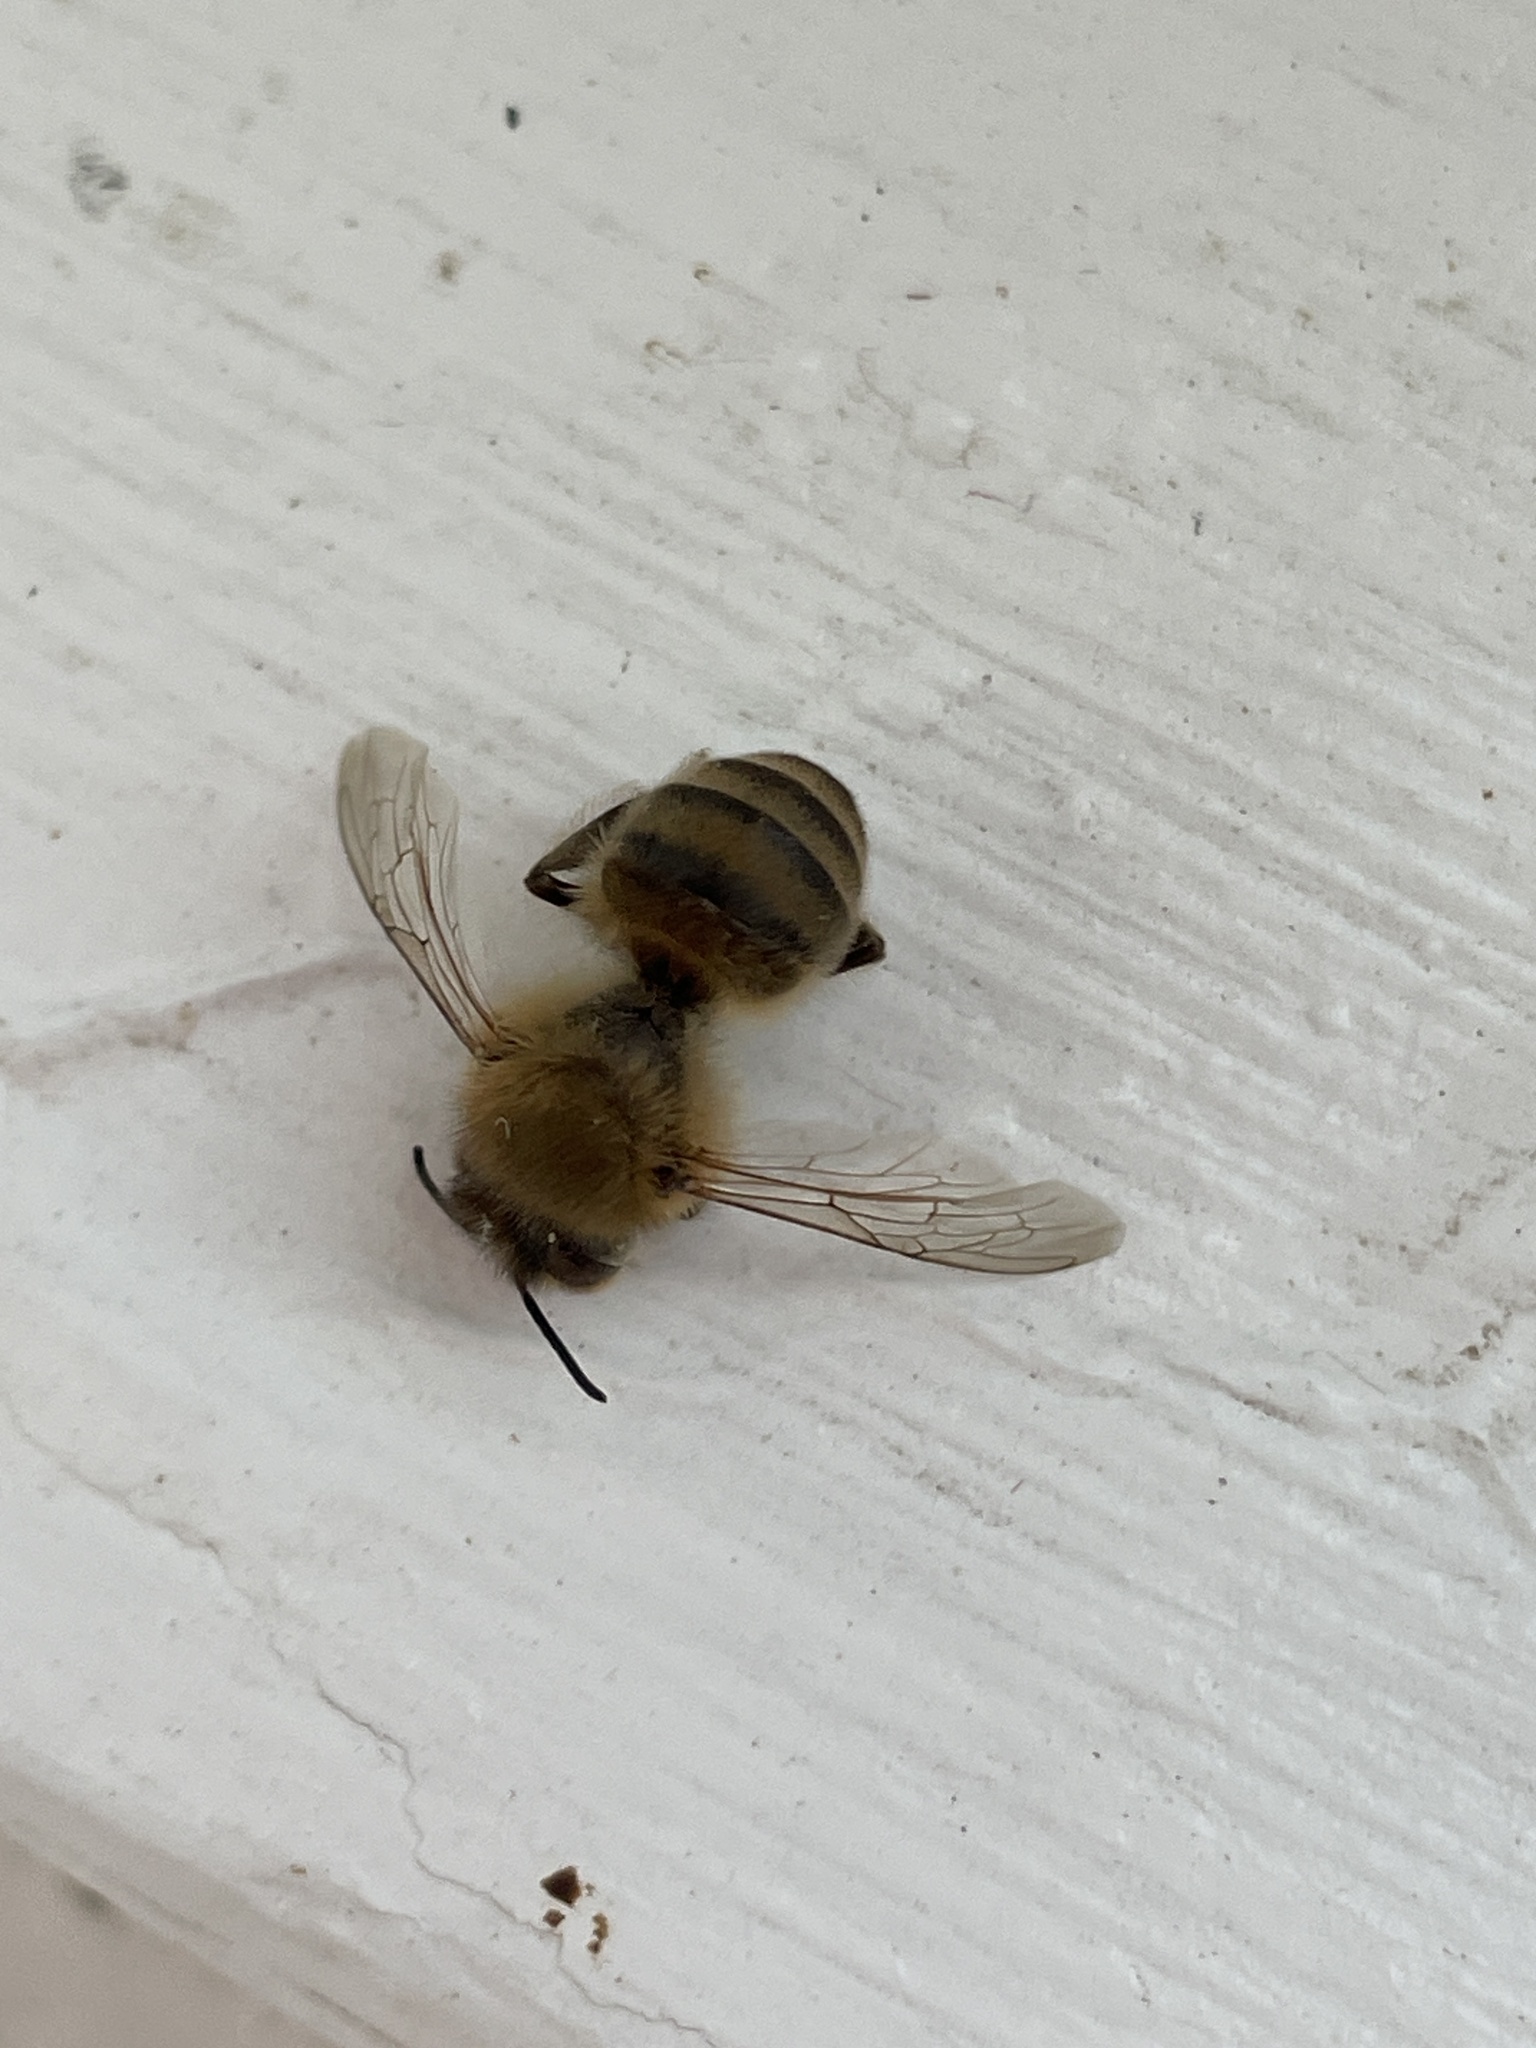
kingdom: Animalia
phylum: Arthropoda
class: Insecta
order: Hymenoptera
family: Apidae
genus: Apis
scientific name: Apis mellifera
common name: Honey bee
